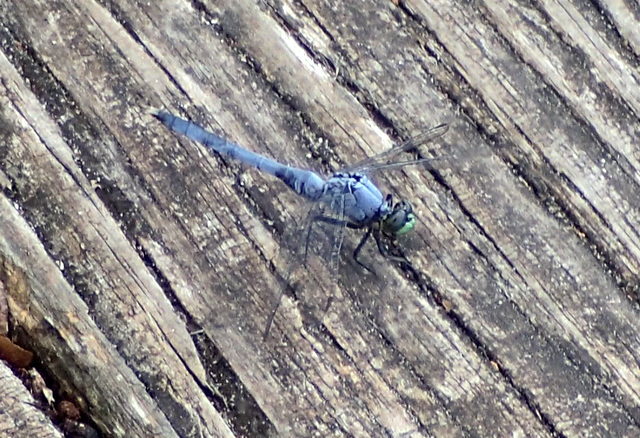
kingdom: Animalia
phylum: Arthropoda
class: Insecta
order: Odonata
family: Libellulidae
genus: Erythemis
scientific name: Erythemis simplicicollis
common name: Eastern pondhawk
